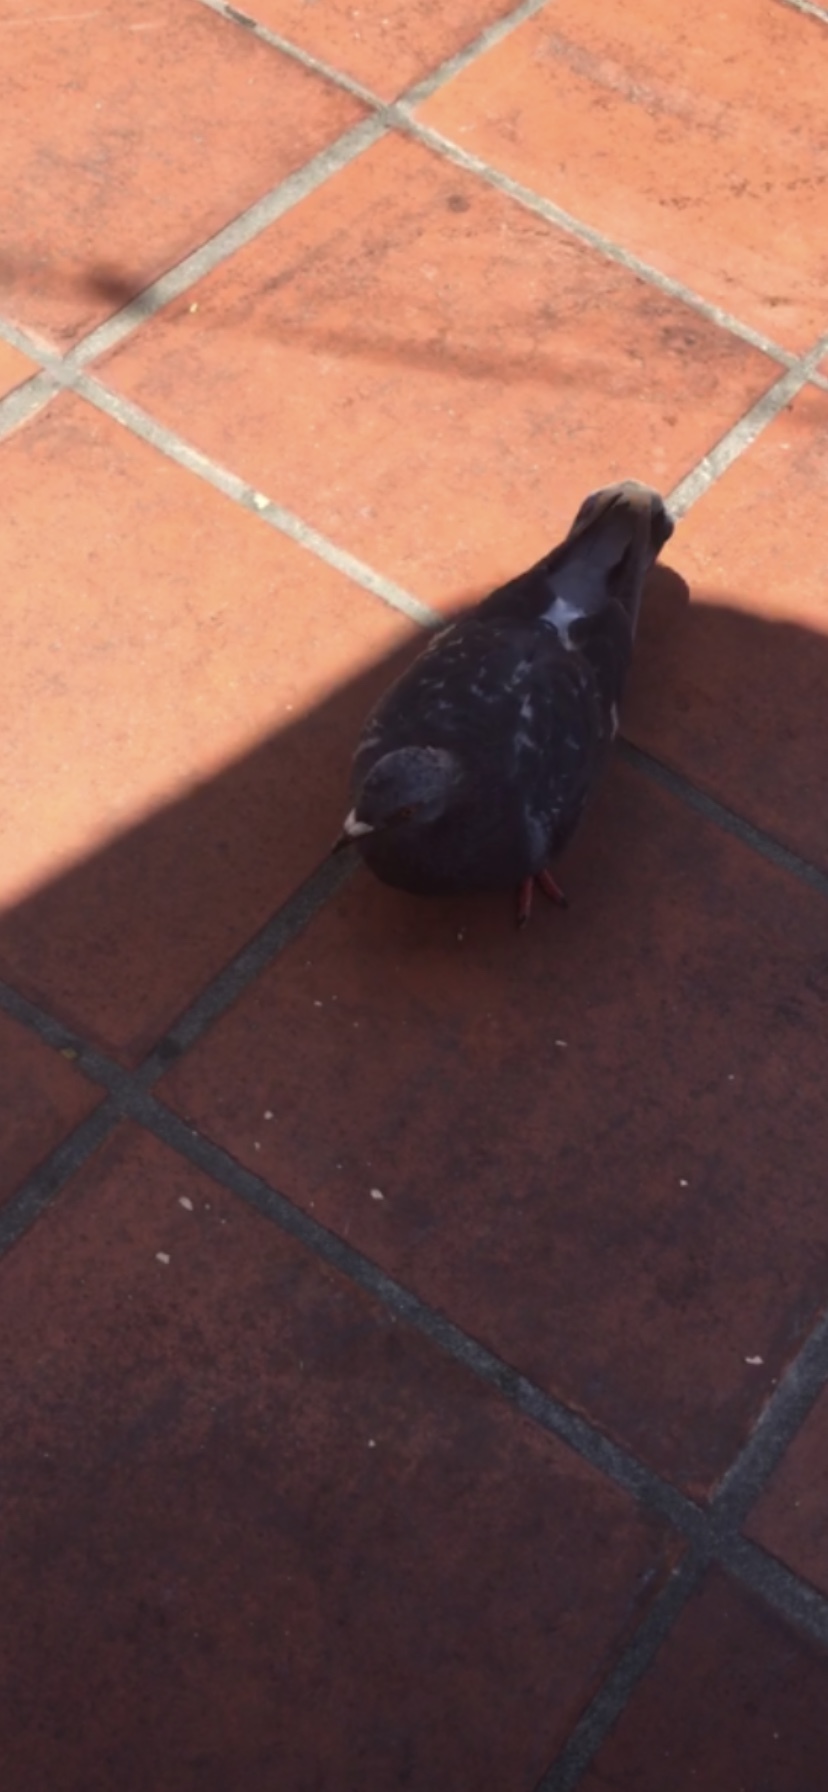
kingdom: Animalia
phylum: Chordata
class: Aves
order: Columbiformes
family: Columbidae
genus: Columba
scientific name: Columba livia
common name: Rock pigeon
